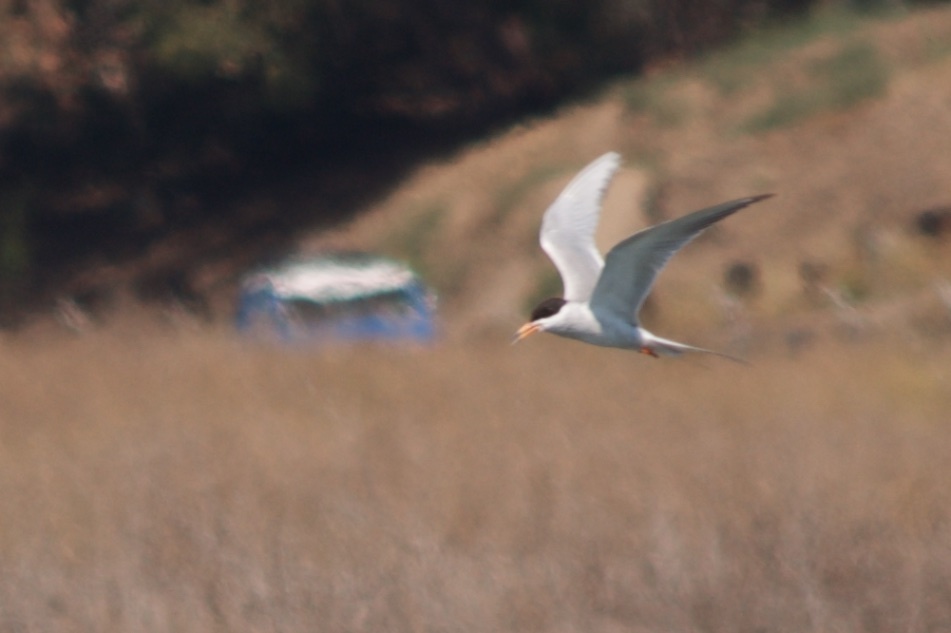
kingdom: Animalia
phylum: Chordata
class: Aves
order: Charadriiformes
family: Laridae
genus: Sterna
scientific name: Sterna forsteri
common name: Forster's tern
